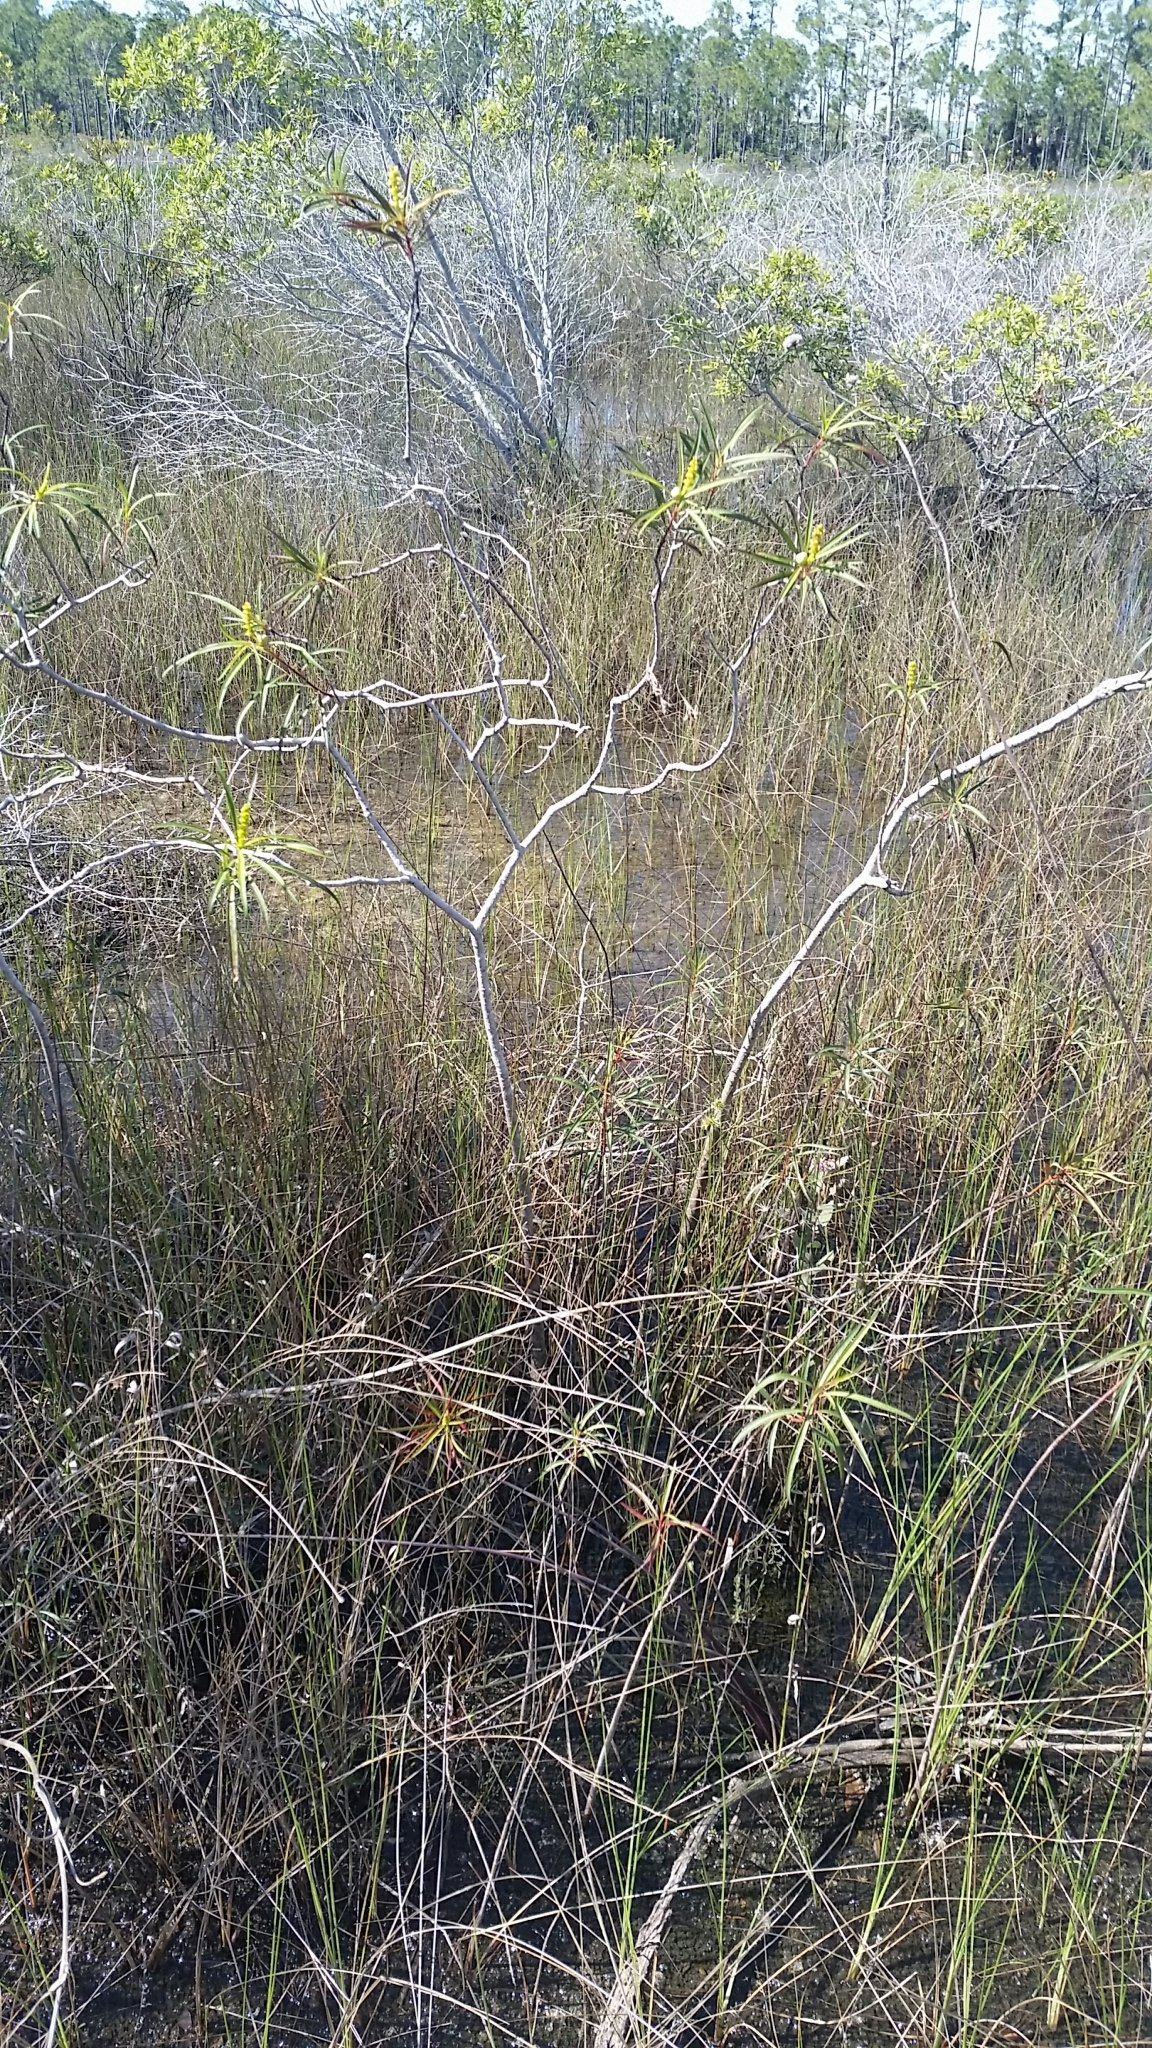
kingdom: Plantae
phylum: Tracheophyta
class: Magnoliopsida
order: Malpighiales
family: Euphorbiaceae
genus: Stillingia
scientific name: Stillingia aquatica
